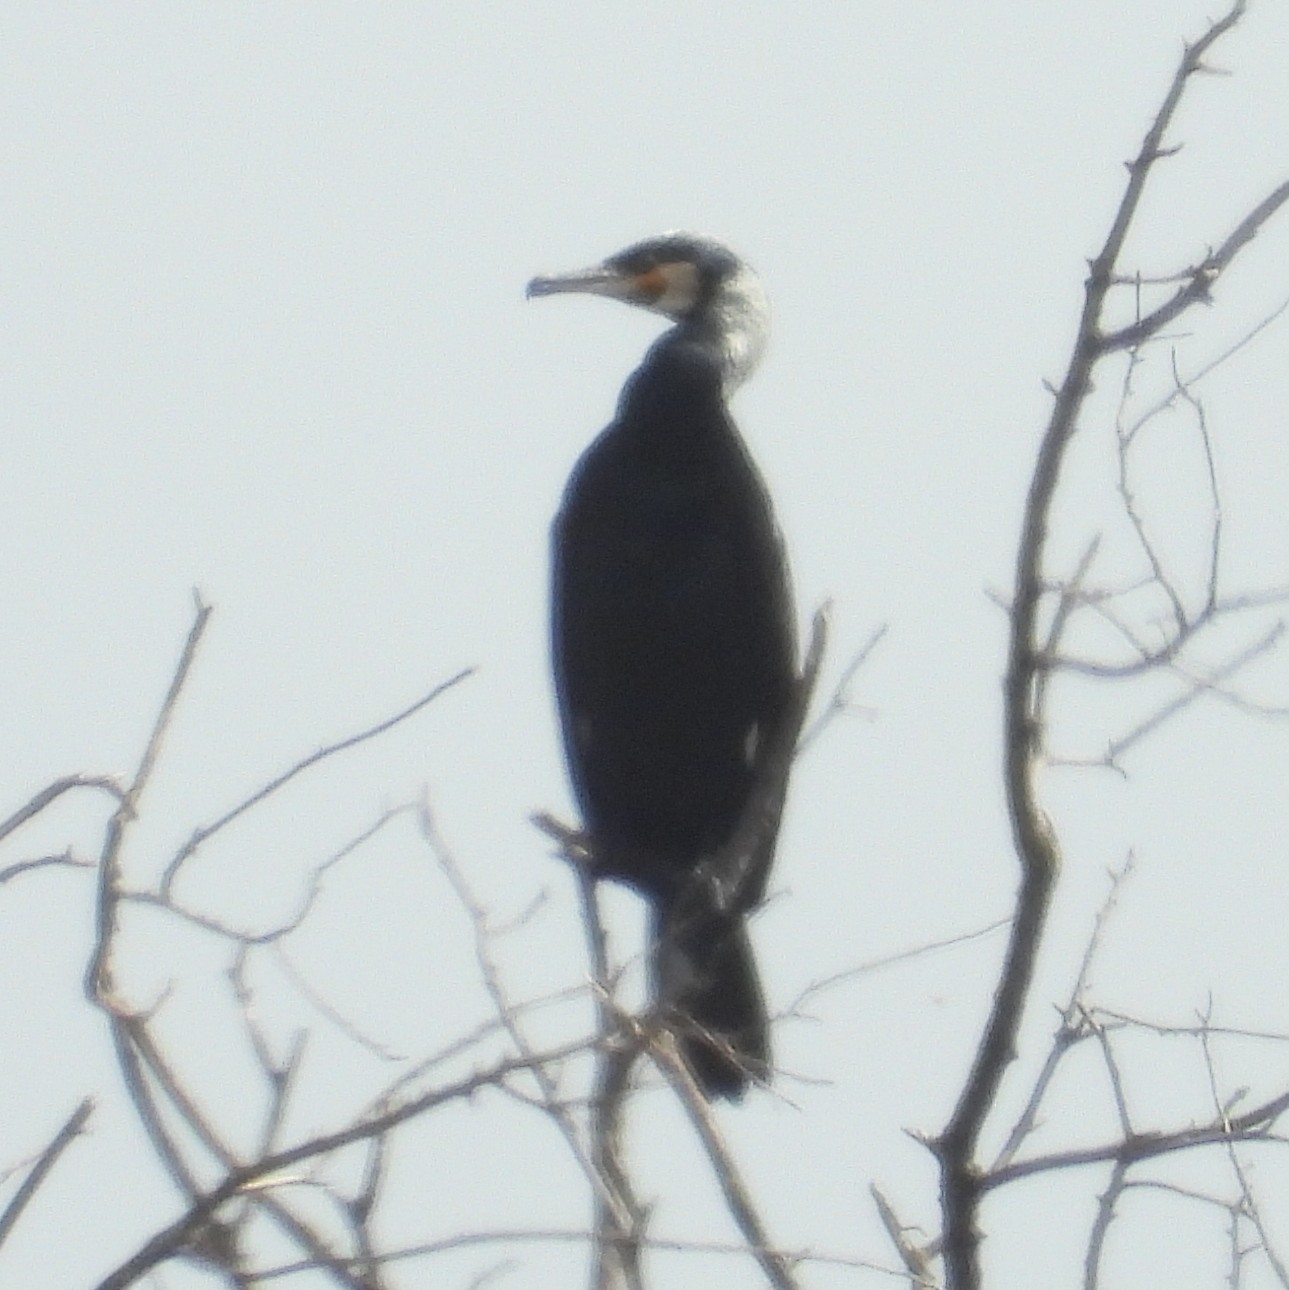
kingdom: Animalia
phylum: Chordata
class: Aves
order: Suliformes
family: Phalacrocoracidae
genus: Phalacrocorax
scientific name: Phalacrocorax carbo
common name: Great cormorant
